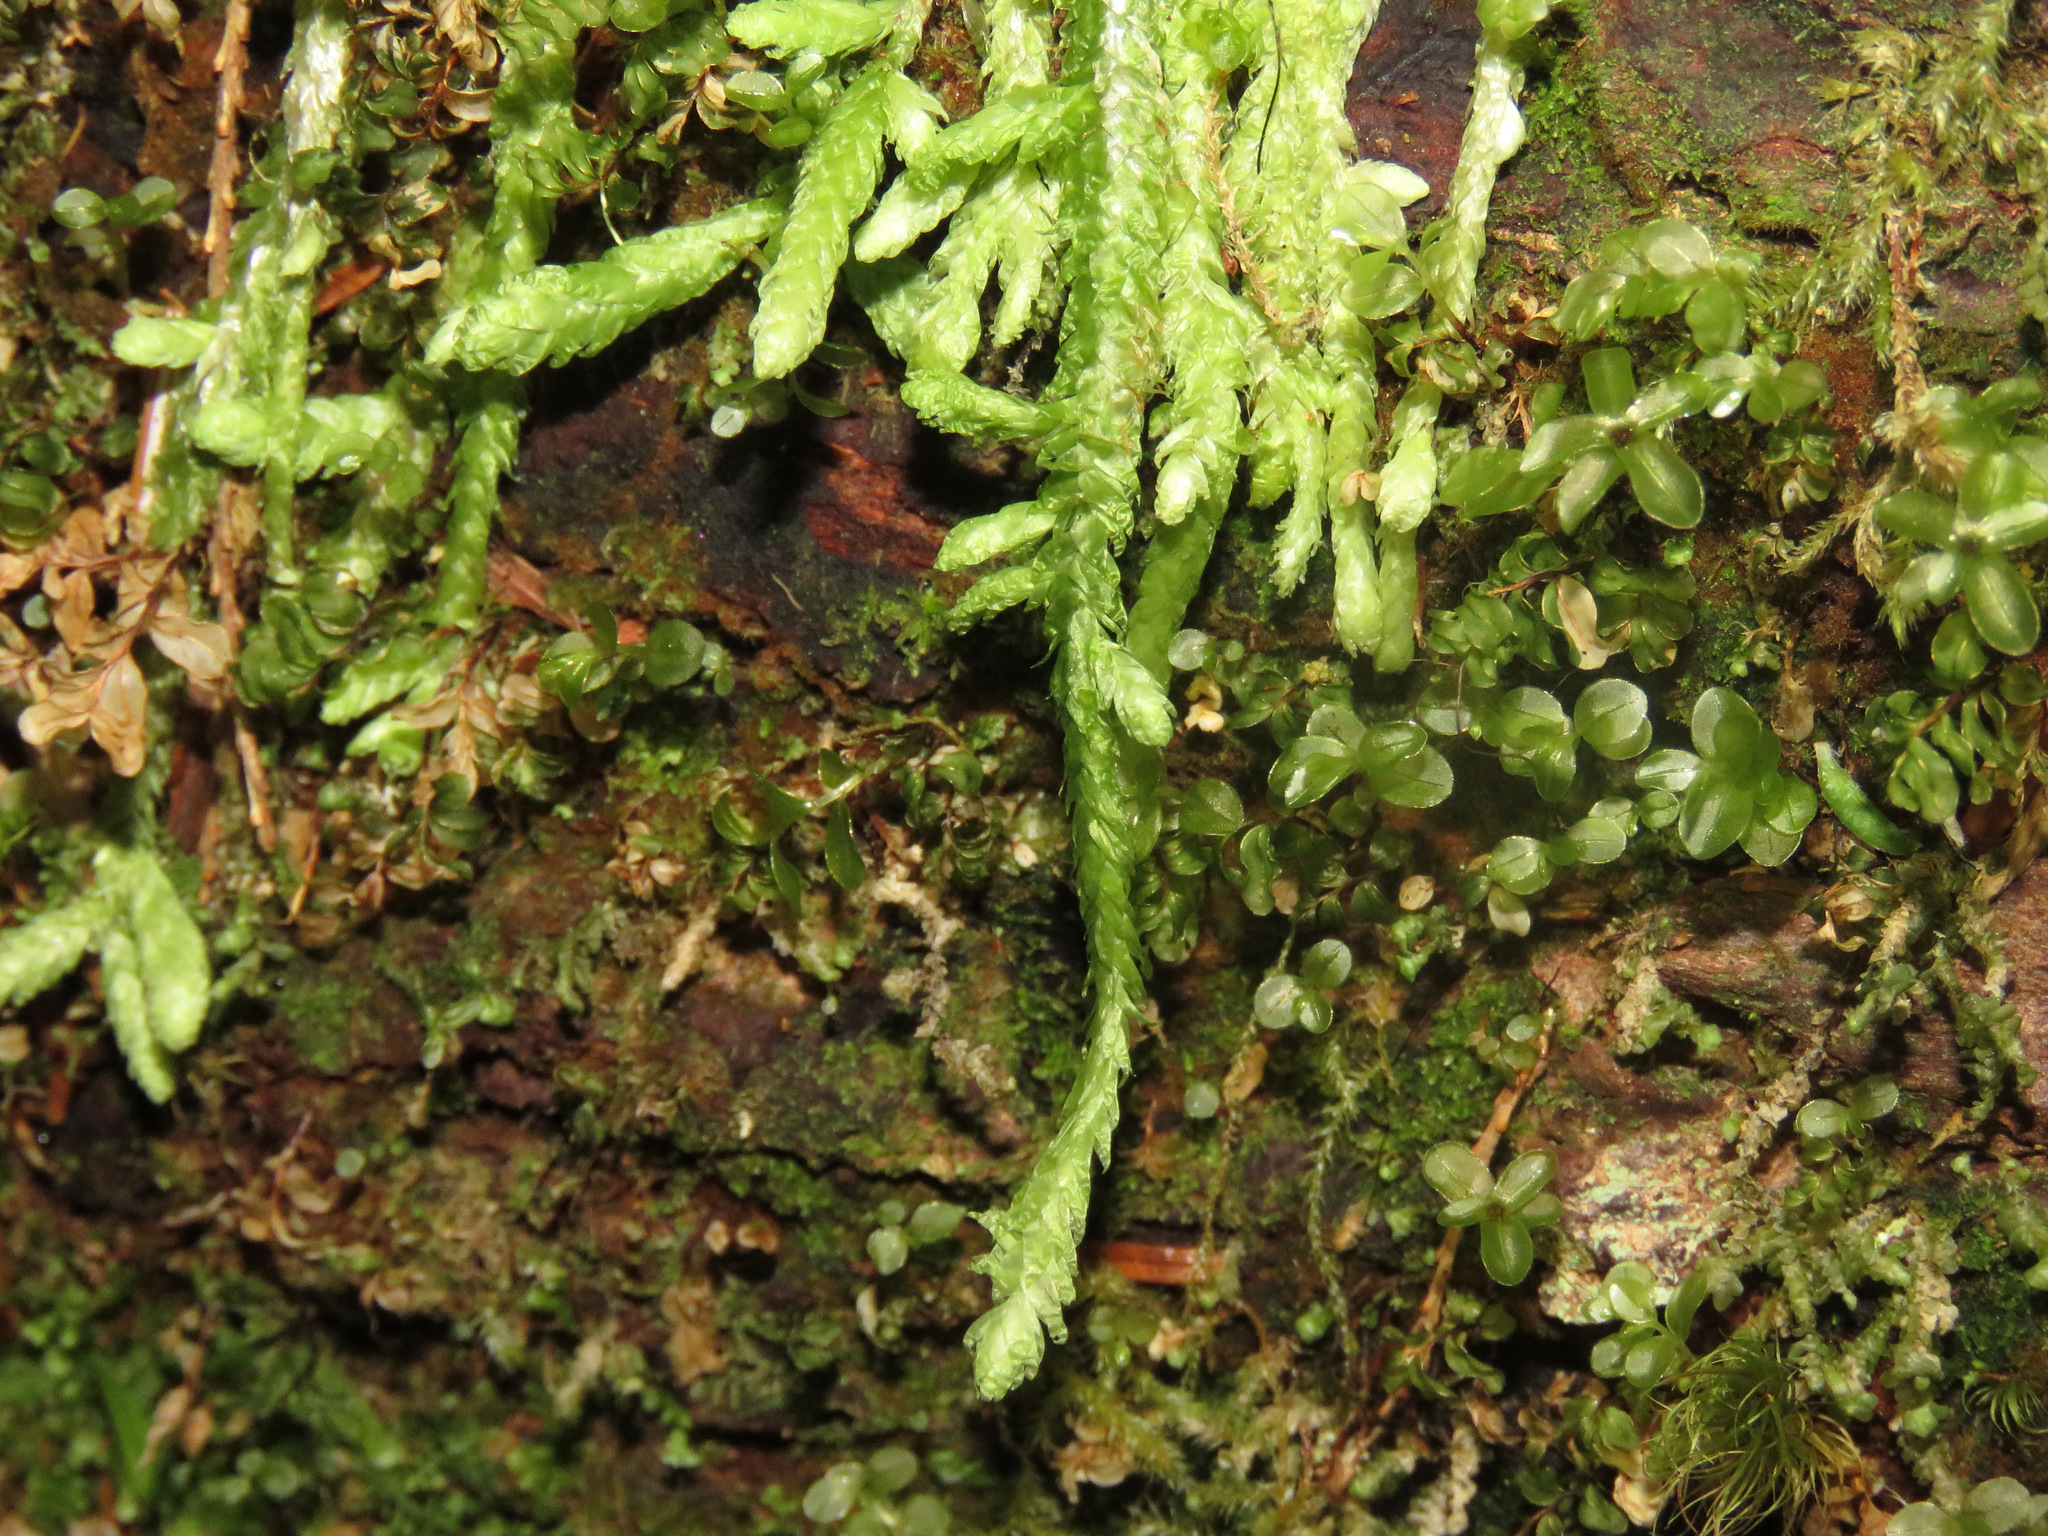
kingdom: Plantae
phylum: Bryophyta
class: Bryopsida
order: Hypnales
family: Plagiotheciaceae
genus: Plagiothecium
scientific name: Plagiothecium undulatum
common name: Waved silk-moss
